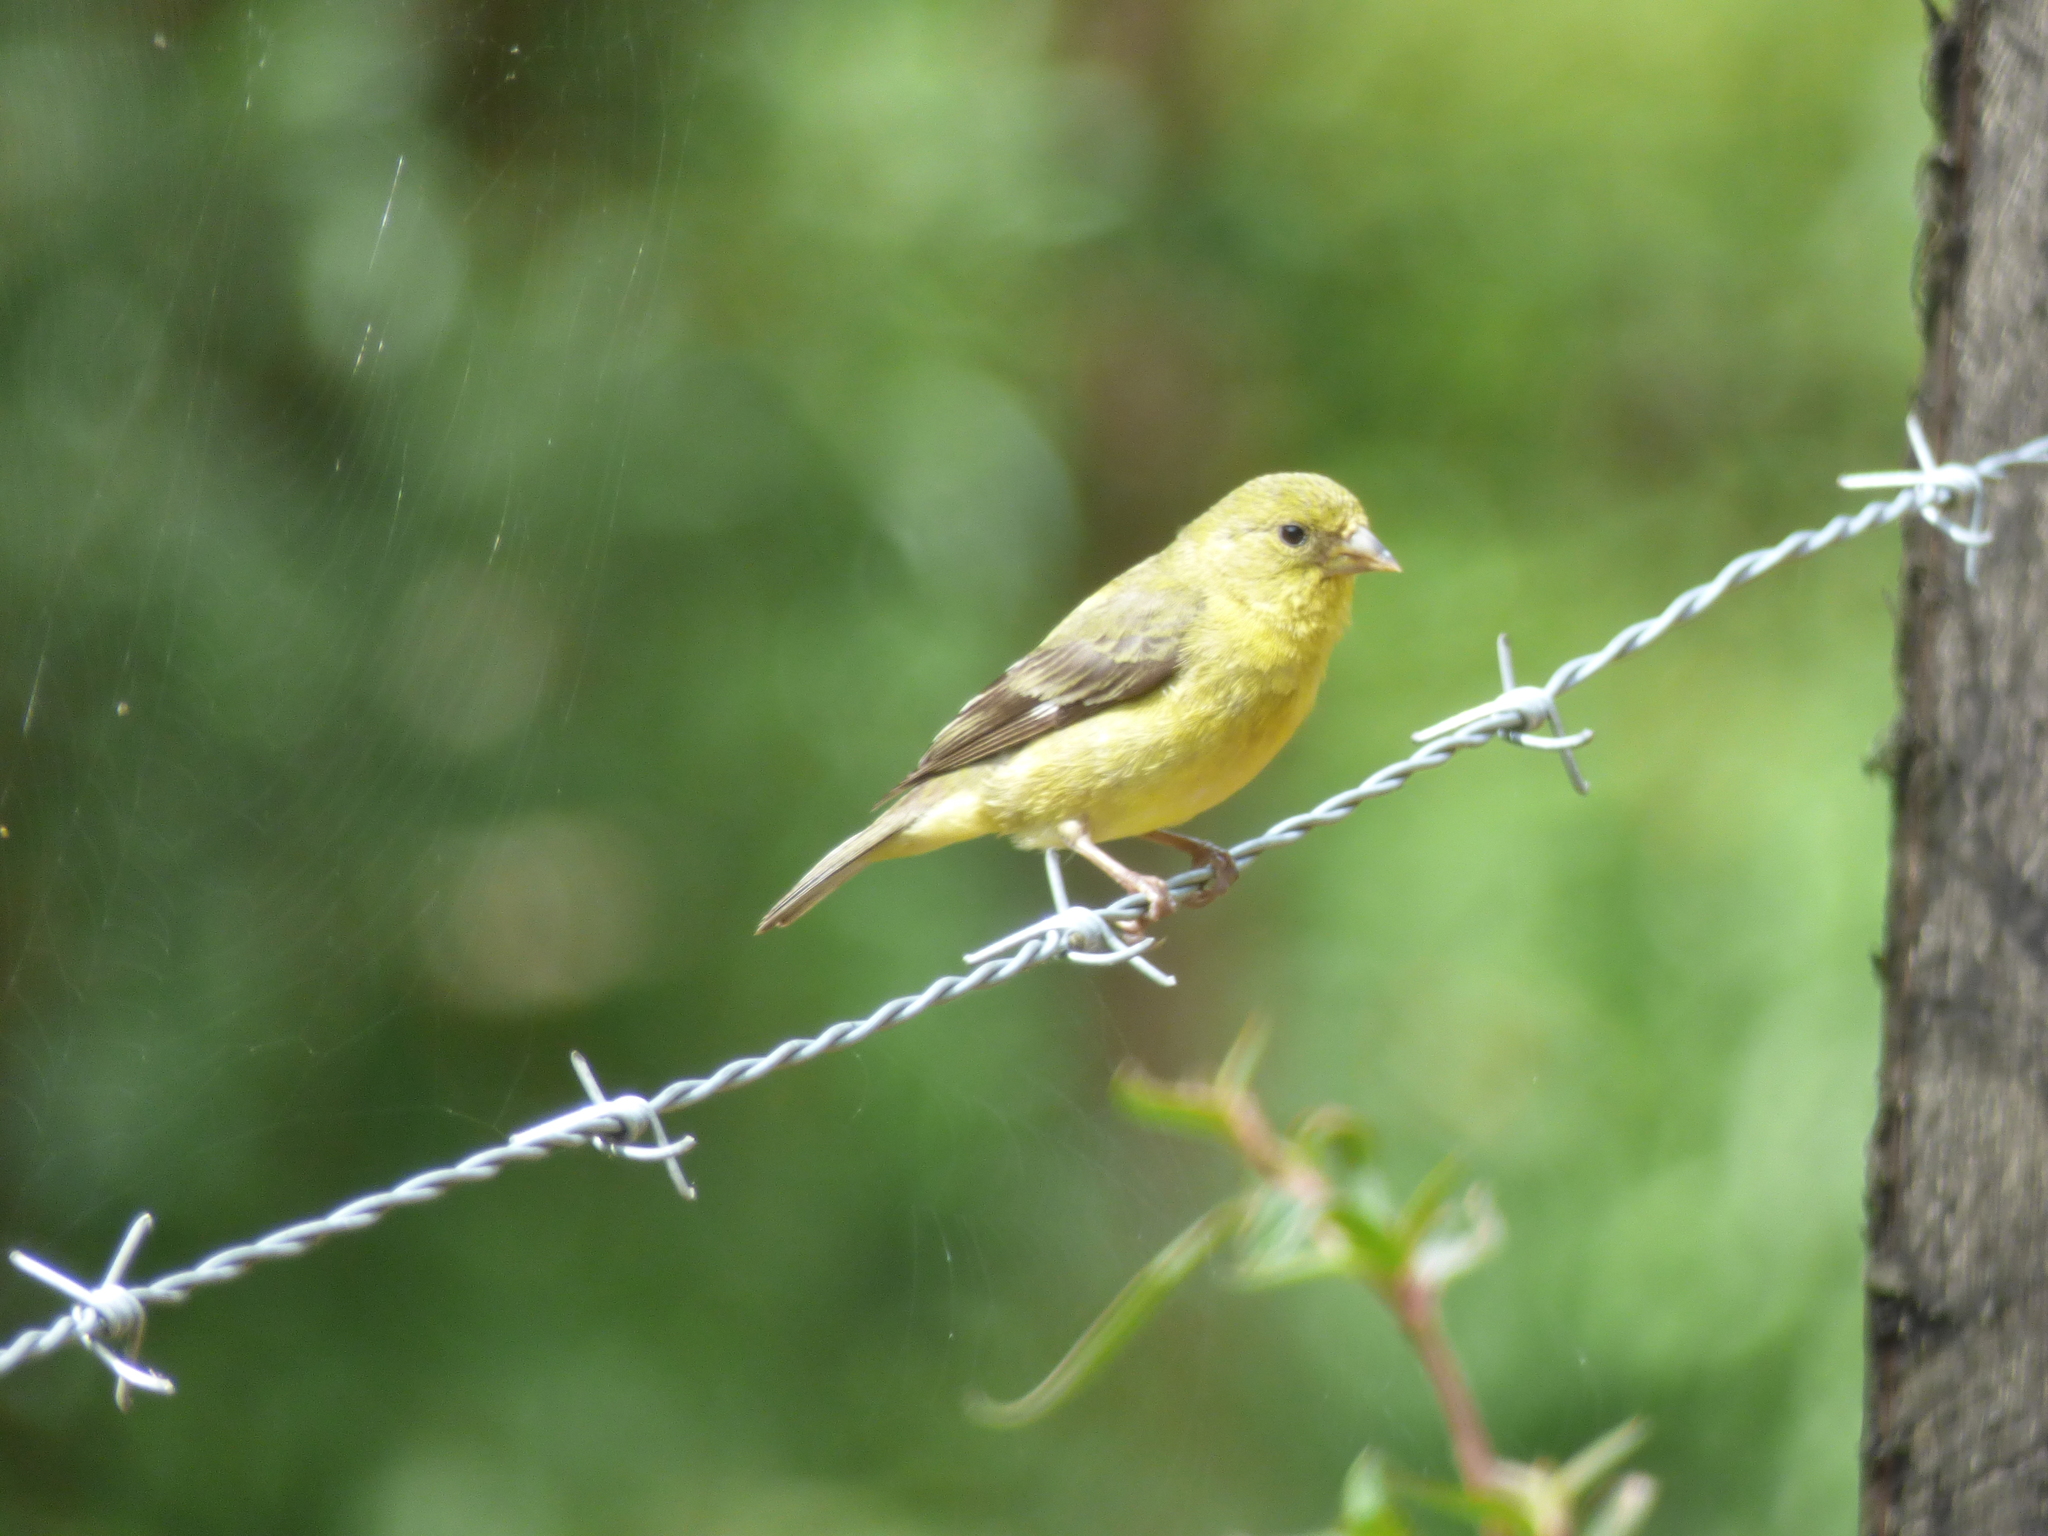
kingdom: Animalia
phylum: Chordata
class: Aves
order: Passeriformes
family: Fringillidae
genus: Spinus
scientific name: Spinus psaltria
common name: Lesser goldfinch
